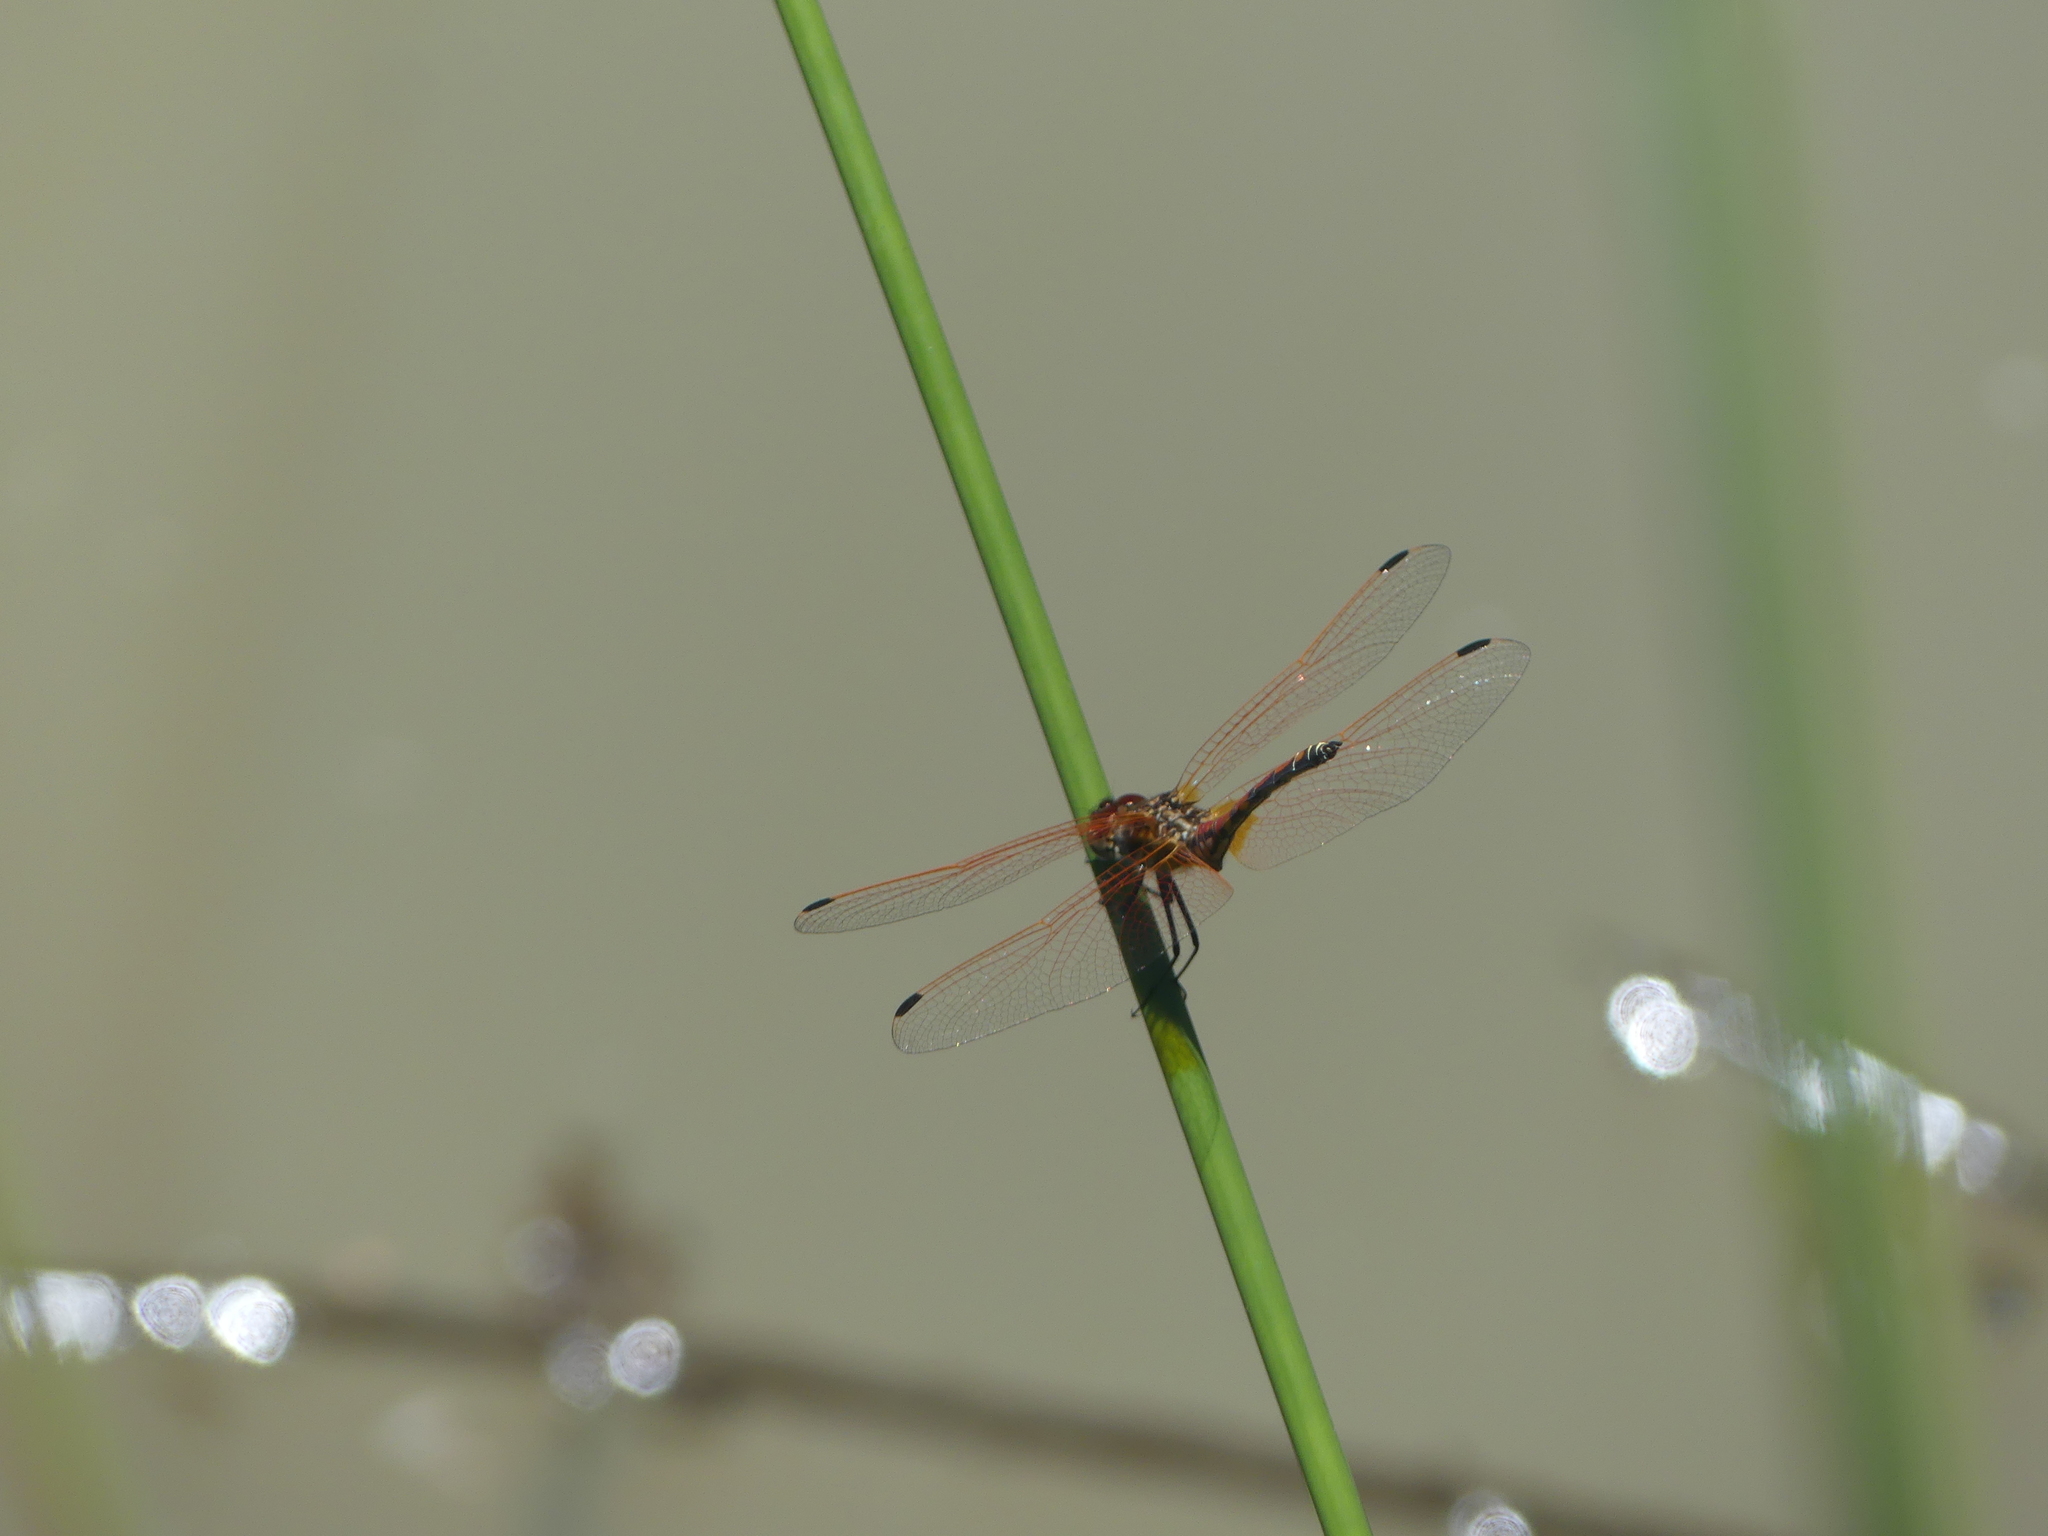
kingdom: Animalia
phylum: Arthropoda
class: Insecta
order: Odonata
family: Libellulidae
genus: Trithemis
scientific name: Trithemis arteriosa
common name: Red-veined dropwing
